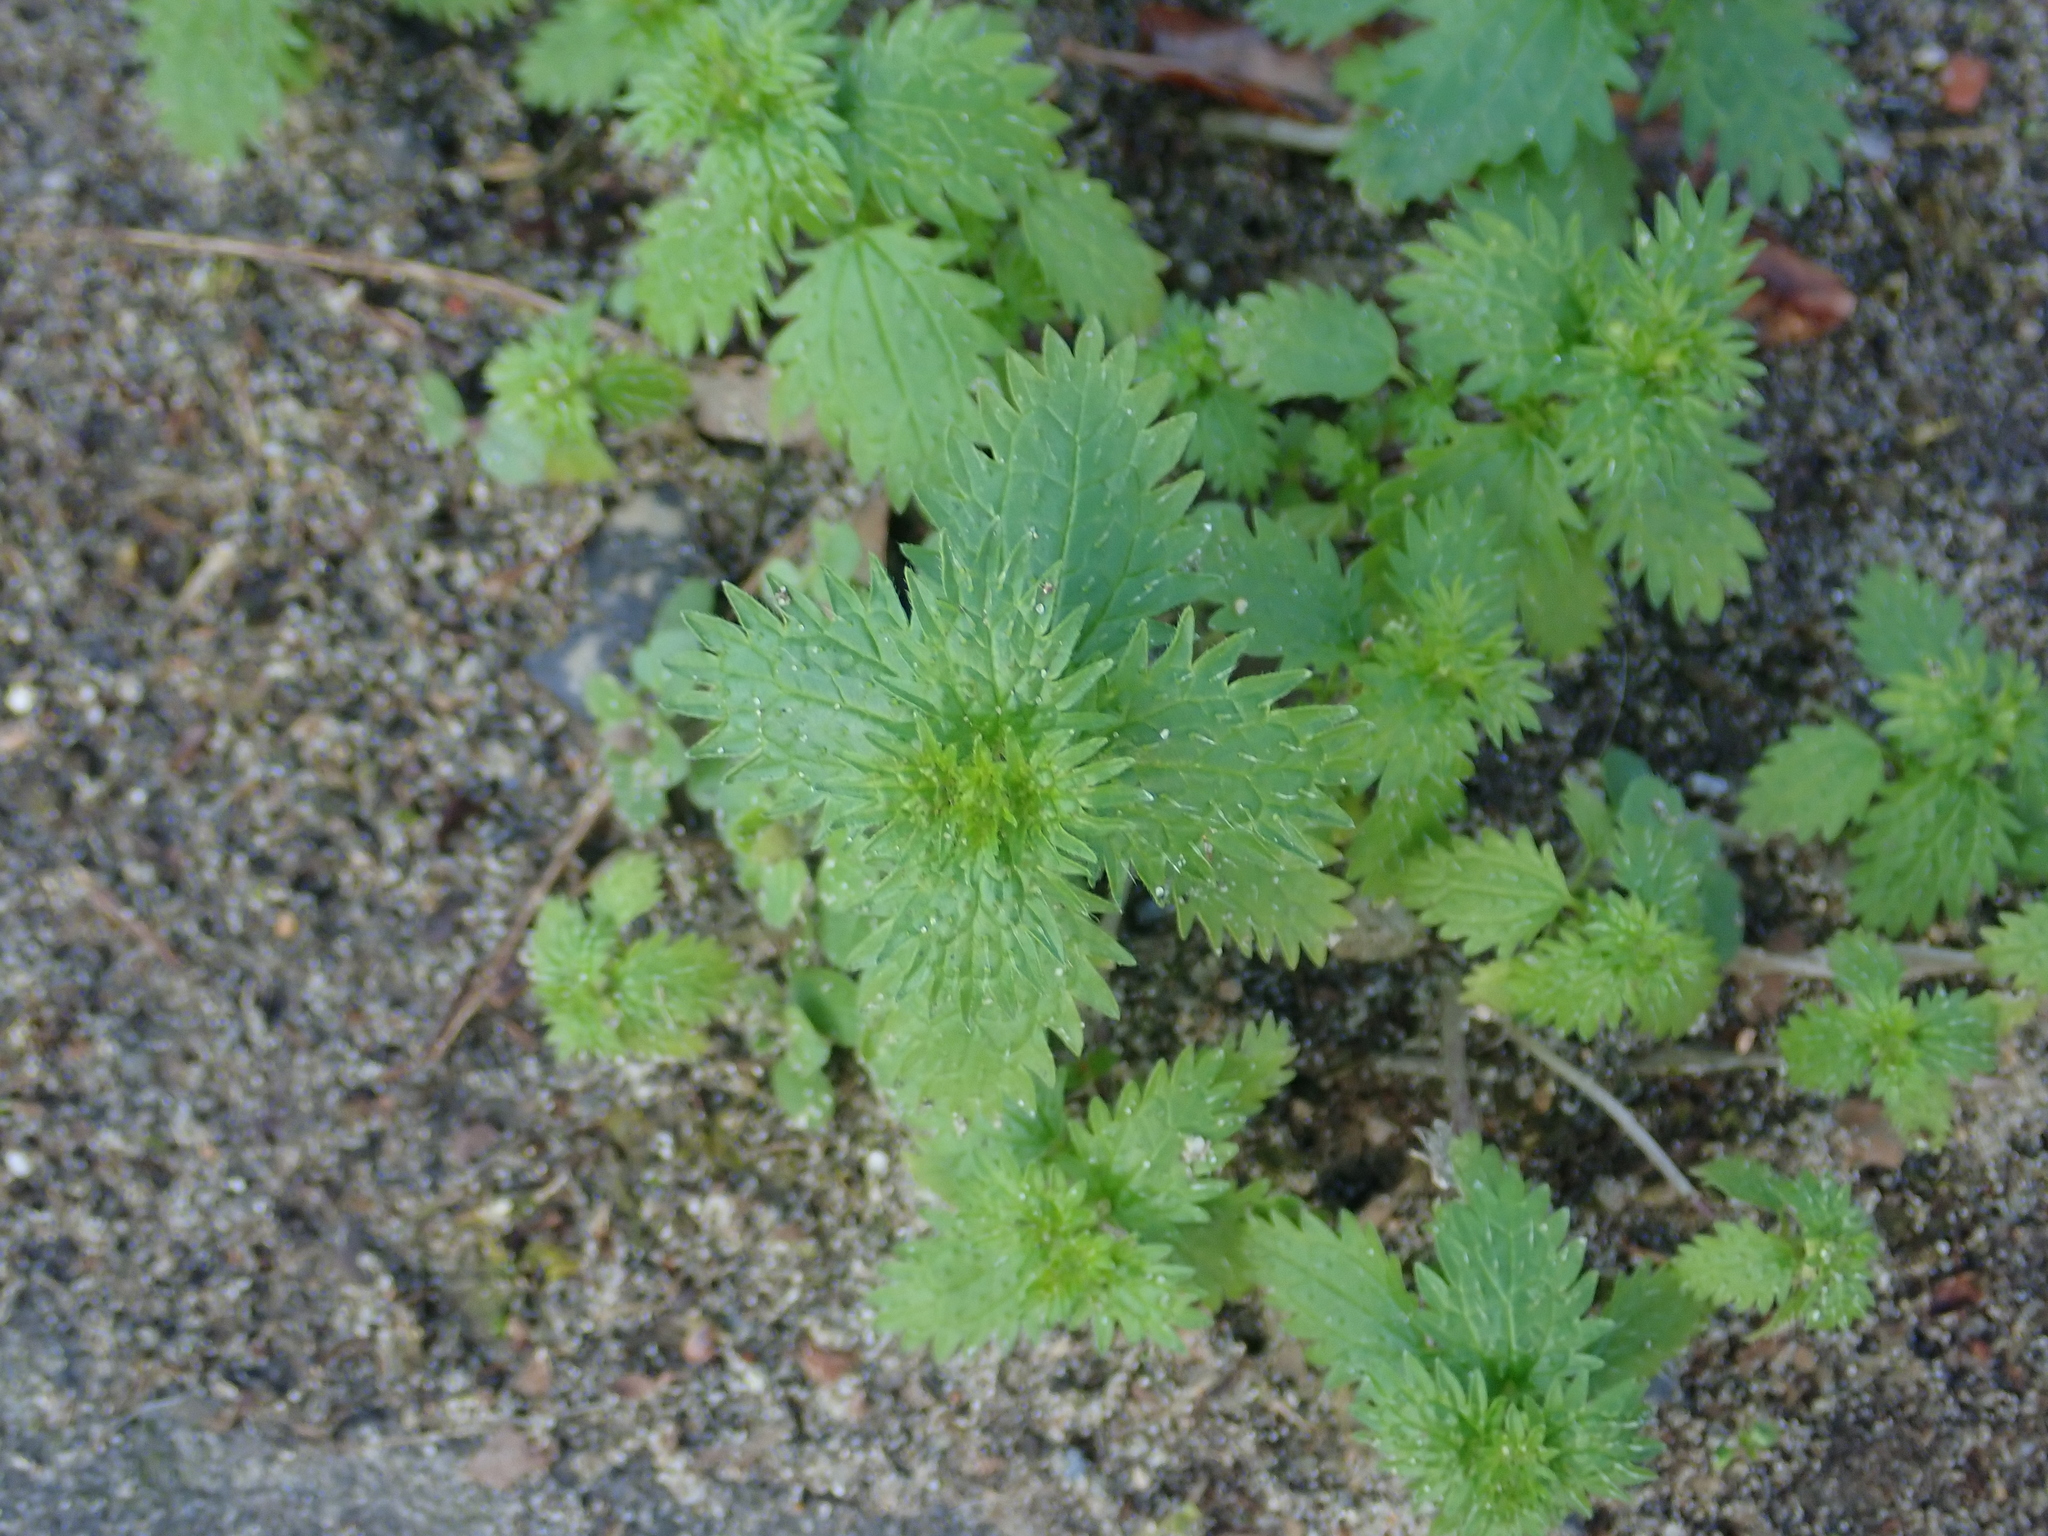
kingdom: Plantae
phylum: Tracheophyta
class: Magnoliopsida
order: Rosales
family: Urticaceae
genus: Urtica
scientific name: Urtica urens
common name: Dwarf nettle
